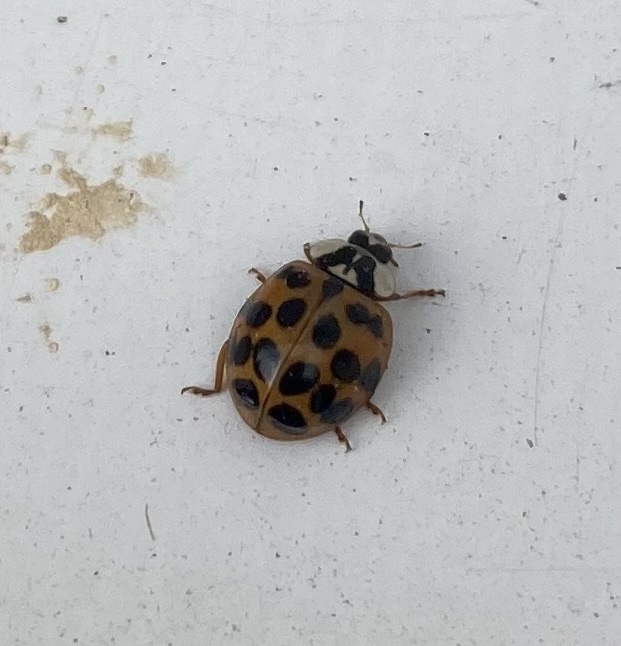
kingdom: Animalia
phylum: Arthropoda
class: Insecta
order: Coleoptera
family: Coccinellidae
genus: Harmonia
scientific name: Harmonia axyridis
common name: Harlequin ladybird
